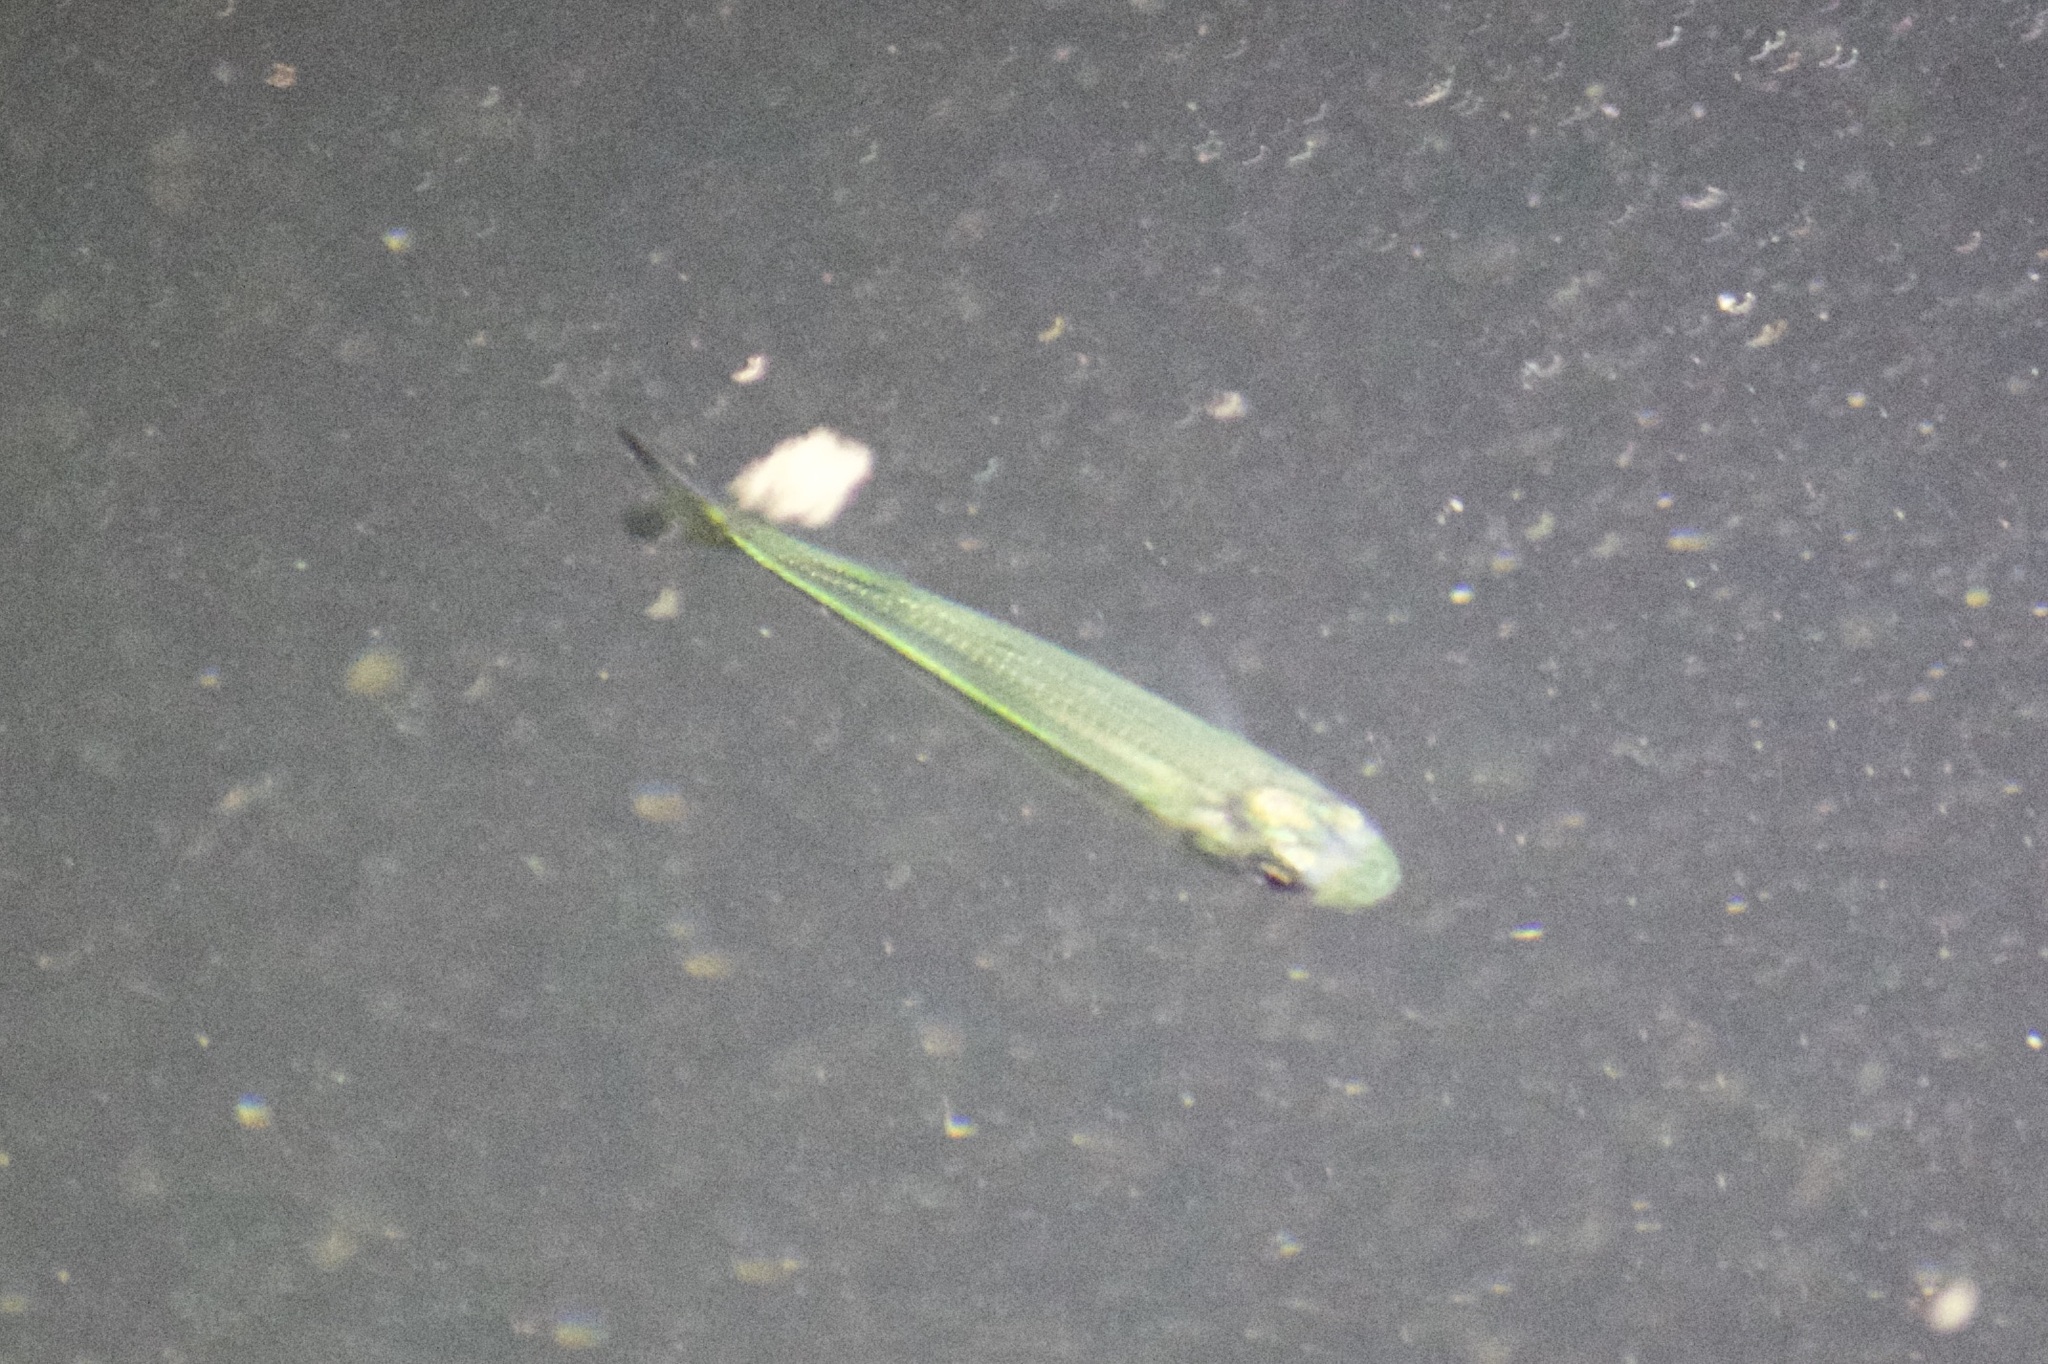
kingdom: Animalia
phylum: Chordata
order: Atheriniformes
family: Atherinidae
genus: Atherinomorus
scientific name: Atherinomorus stipes
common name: Hardhead silverside
